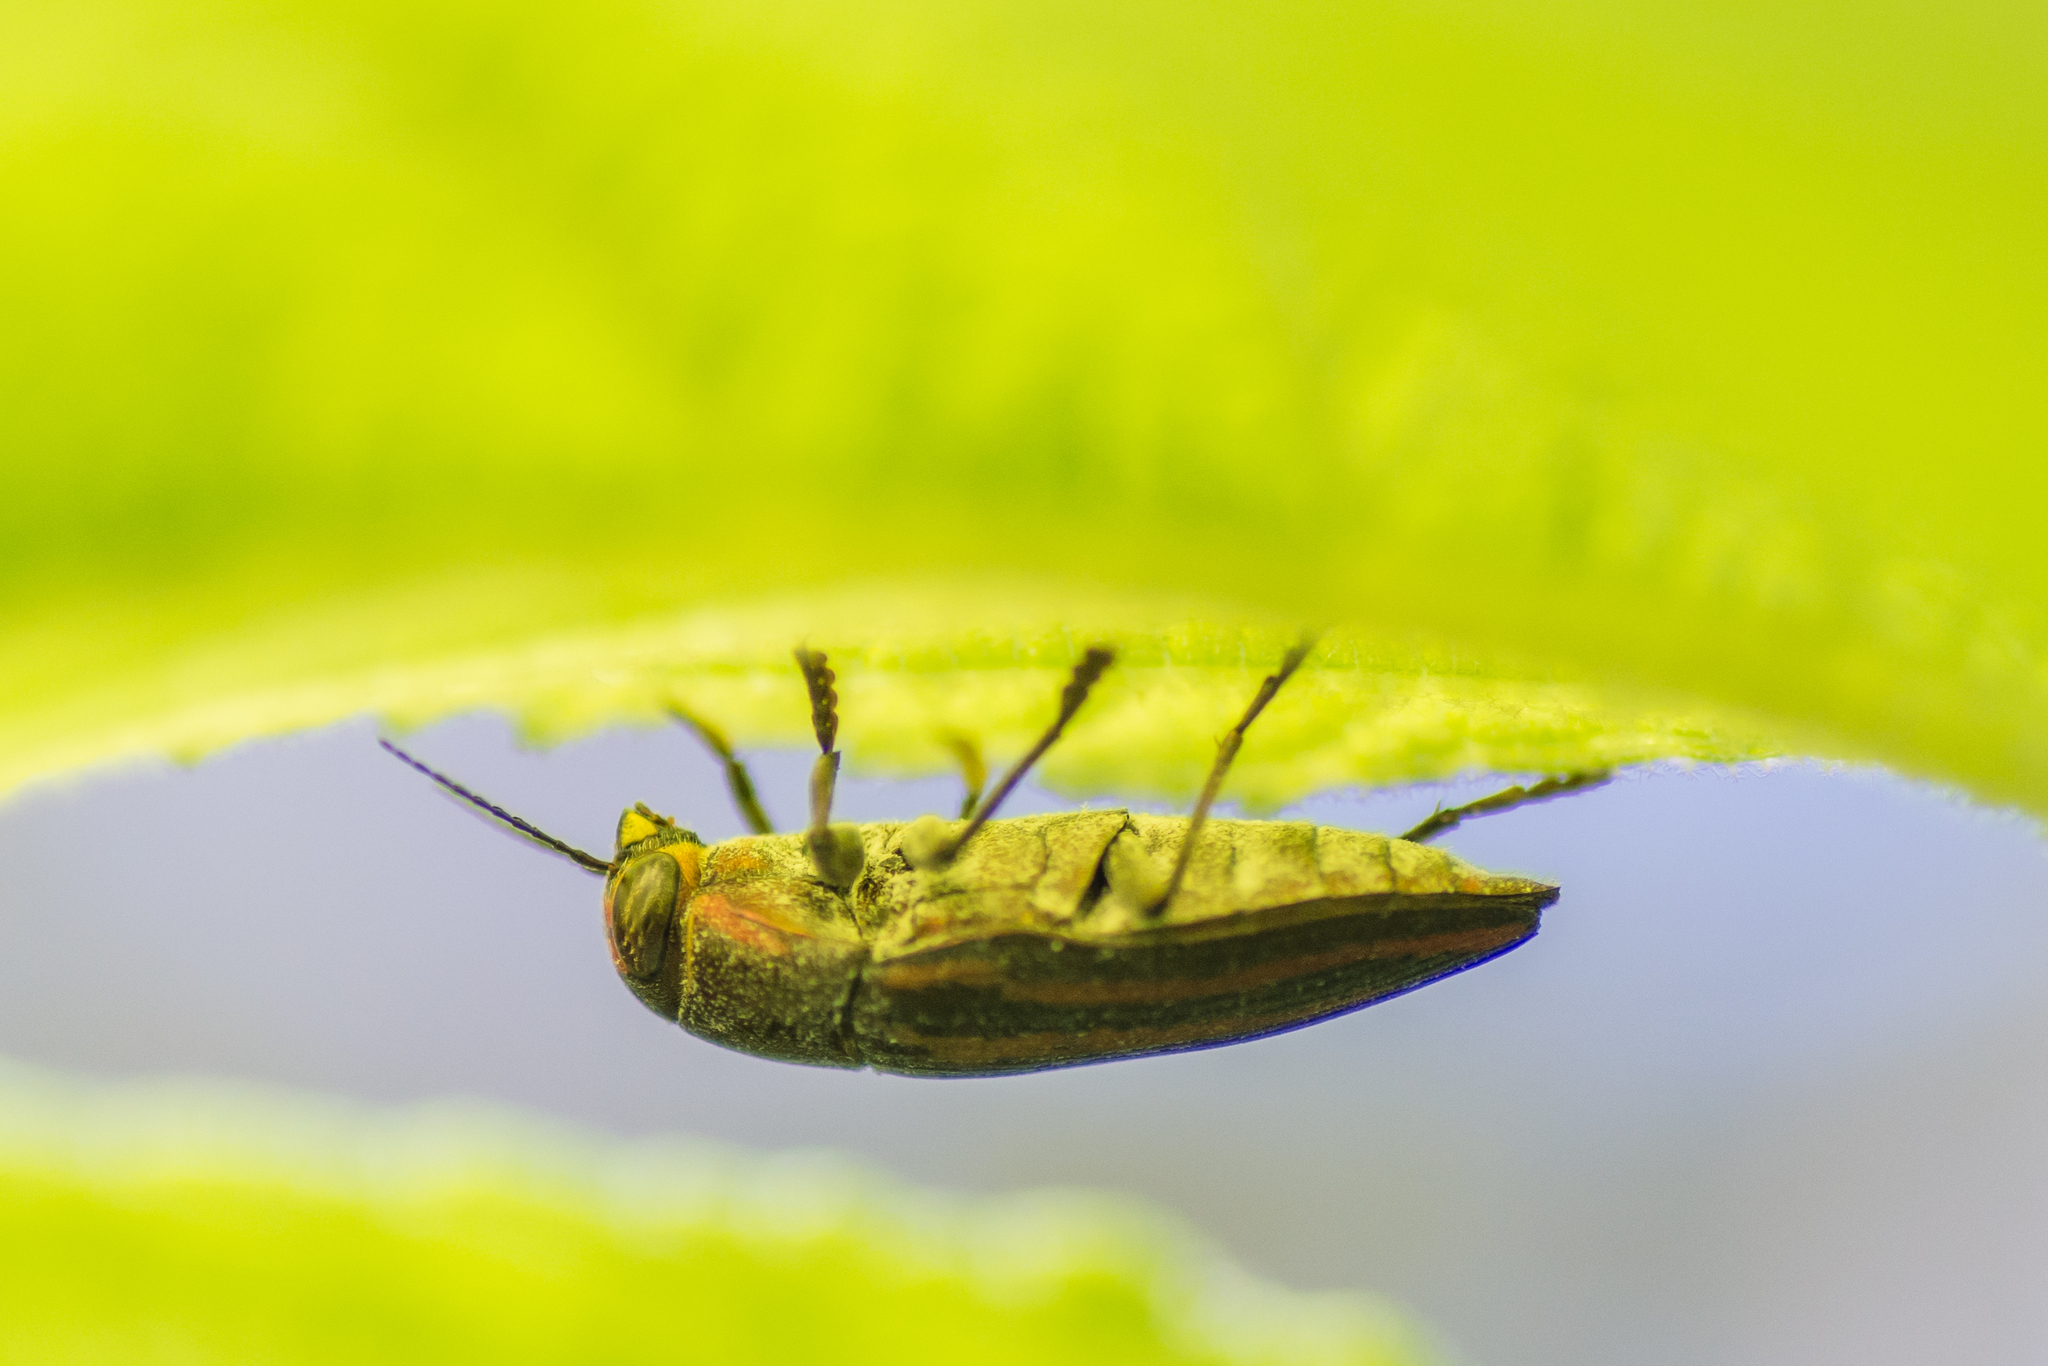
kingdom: Animalia
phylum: Arthropoda
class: Insecta
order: Coleoptera
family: Buprestidae
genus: Buprestis
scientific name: Buprestis lineata
